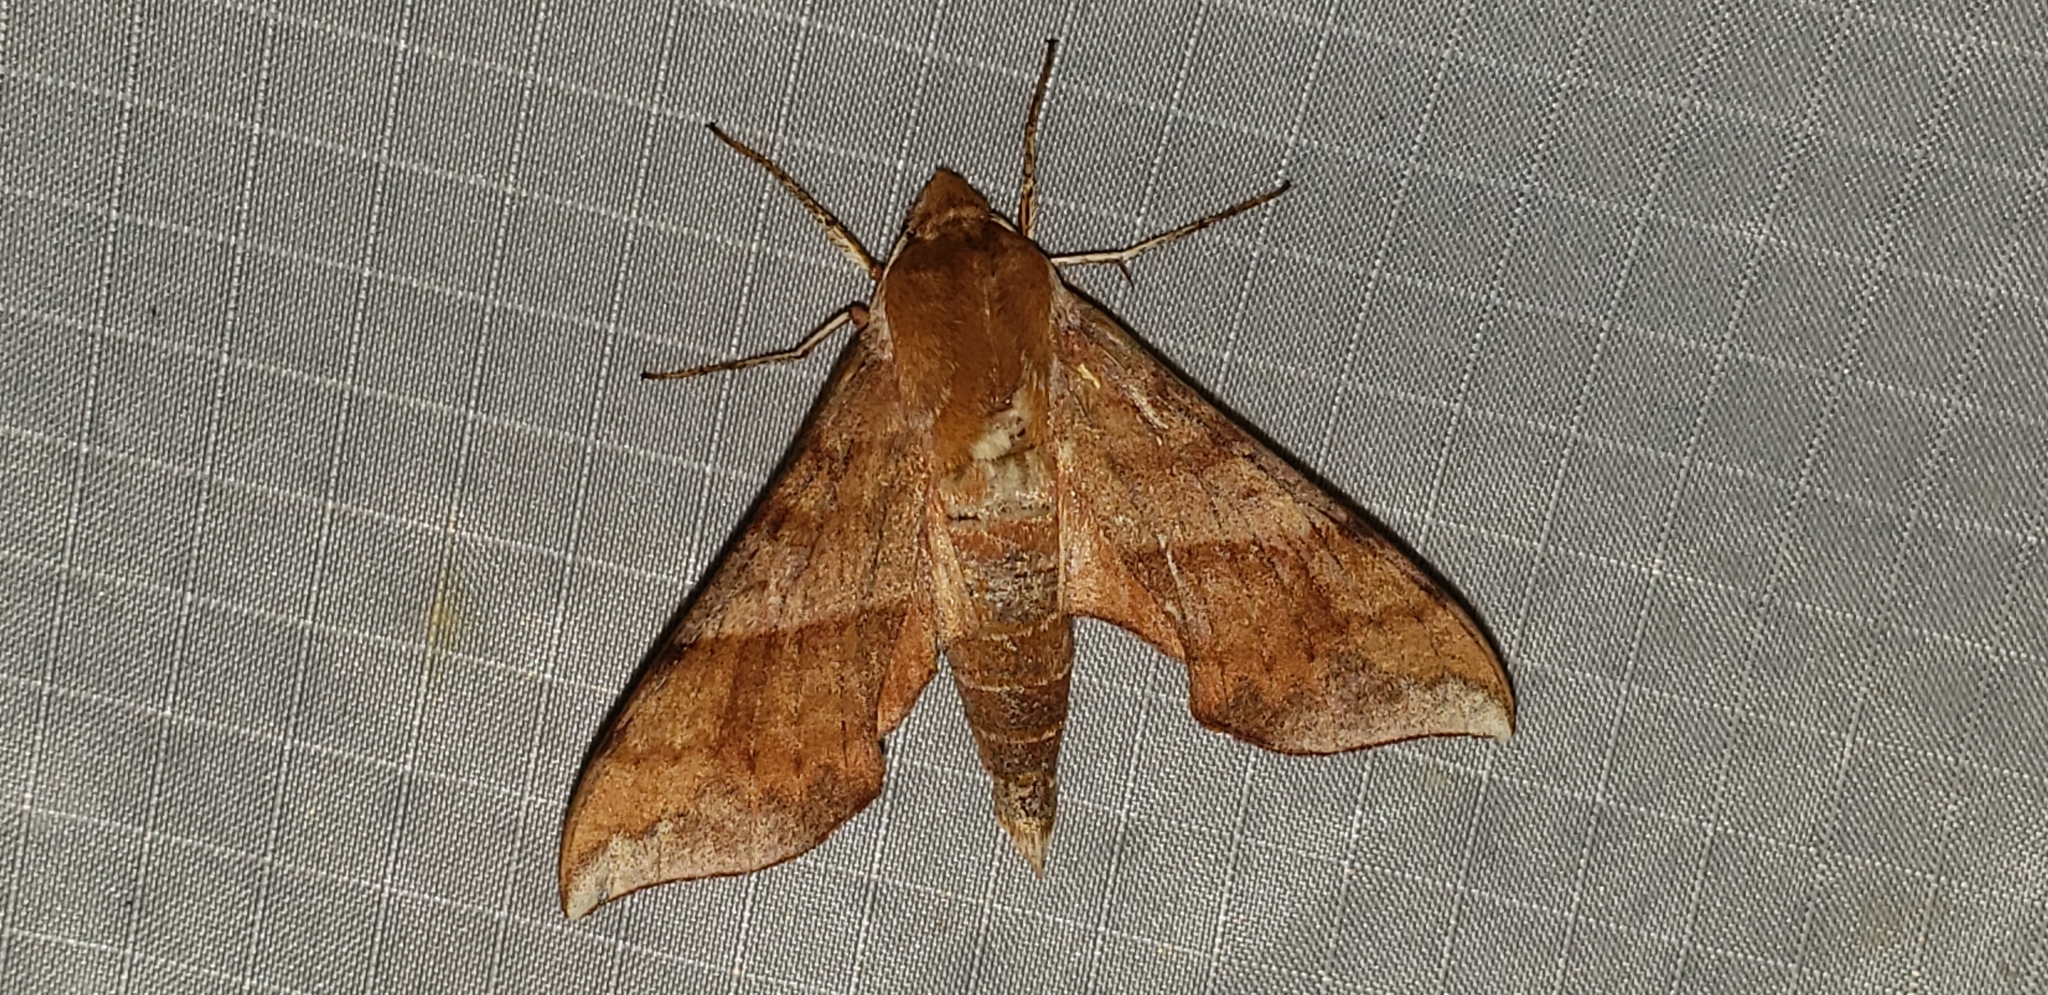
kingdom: Animalia
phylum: Arthropoda
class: Insecta
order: Lepidoptera
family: Sphingidae
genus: Darapsa
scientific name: Darapsa choerilus
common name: Azalea sphinx
